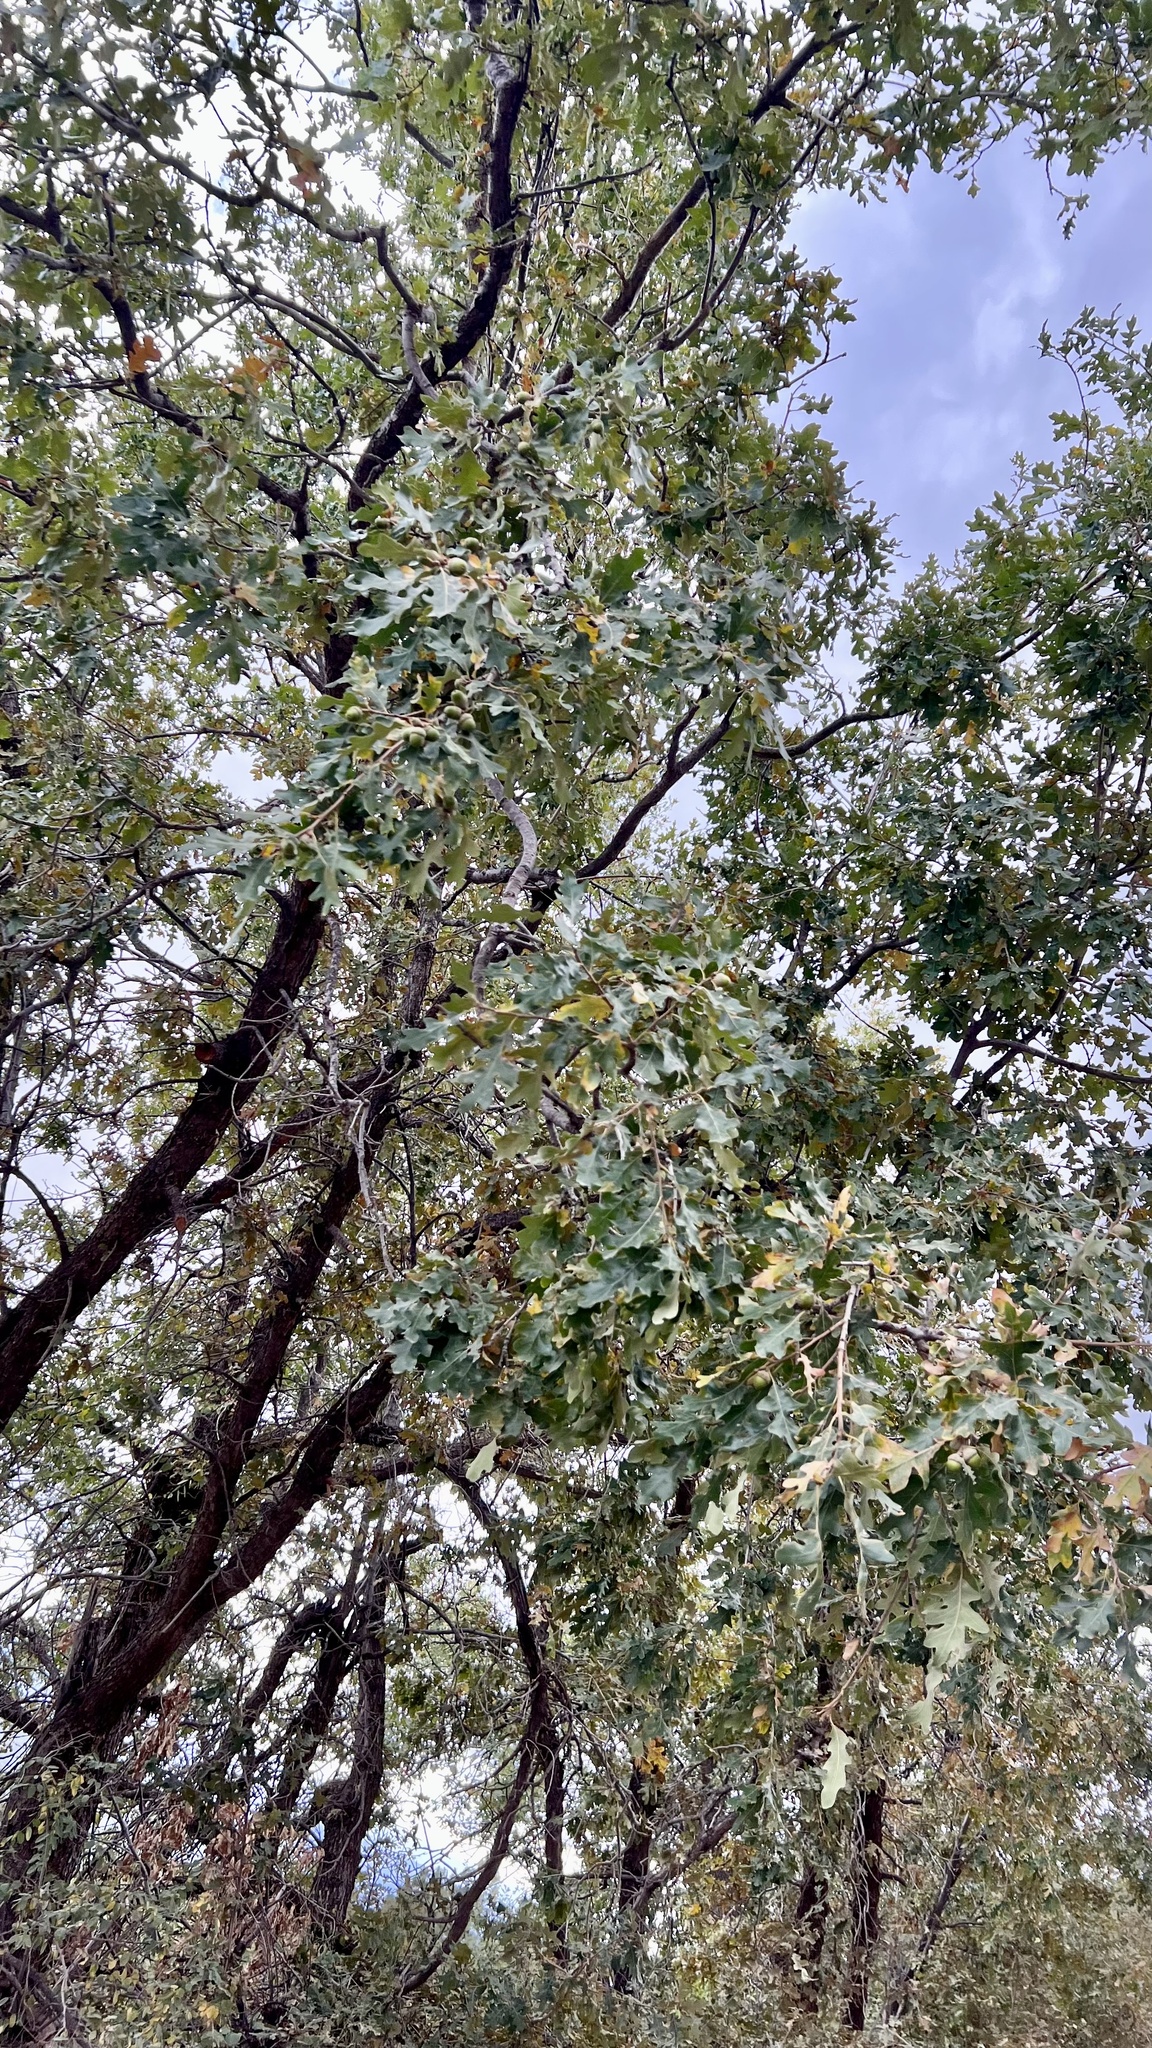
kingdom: Plantae
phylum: Tracheophyta
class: Magnoliopsida
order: Fagales
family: Fagaceae
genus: Quercus
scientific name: Quercus gambelii
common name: Gambel oak
